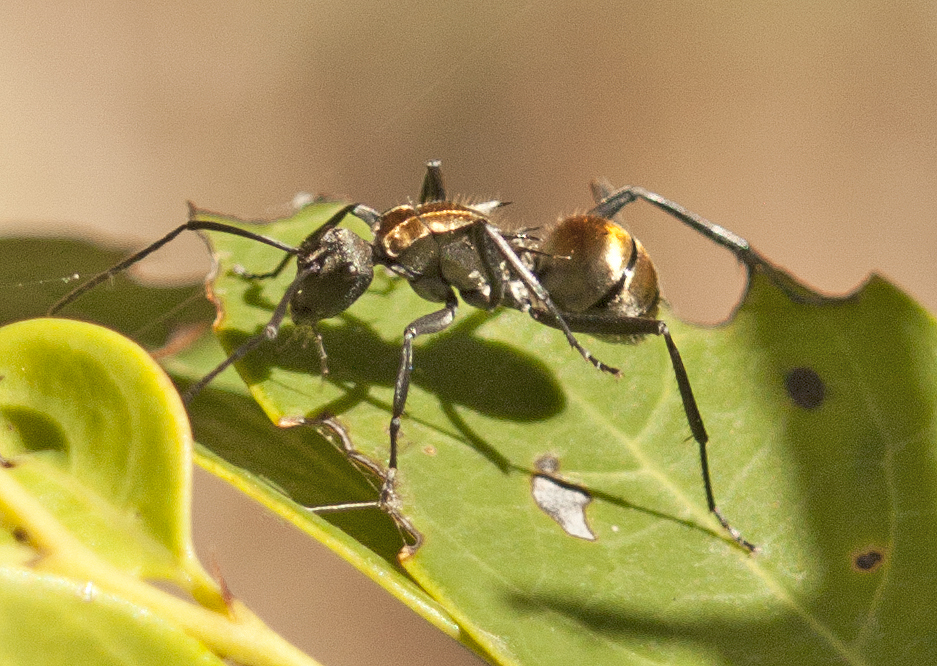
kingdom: Animalia
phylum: Arthropoda
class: Insecta
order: Hymenoptera
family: Formicidae
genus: Polyrhachis
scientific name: Polyrhachis ammon
